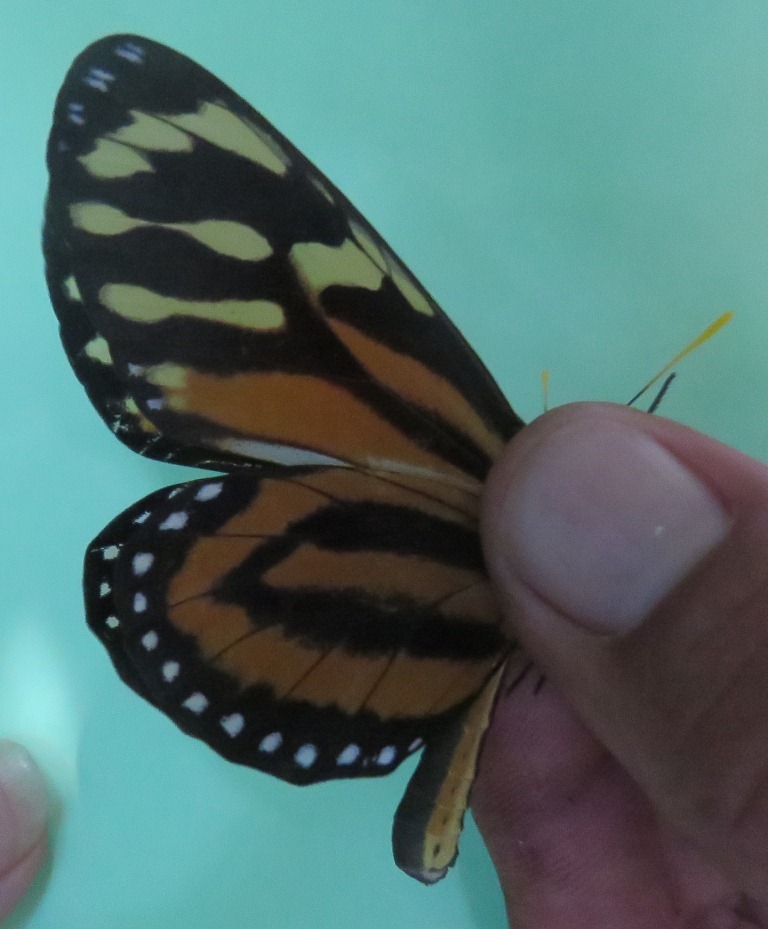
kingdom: Animalia
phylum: Arthropoda
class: Insecta
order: Lepidoptera
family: Nymphalidae
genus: Lycorea
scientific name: Lycorea cleobaea
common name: Tiger mimic-queen
